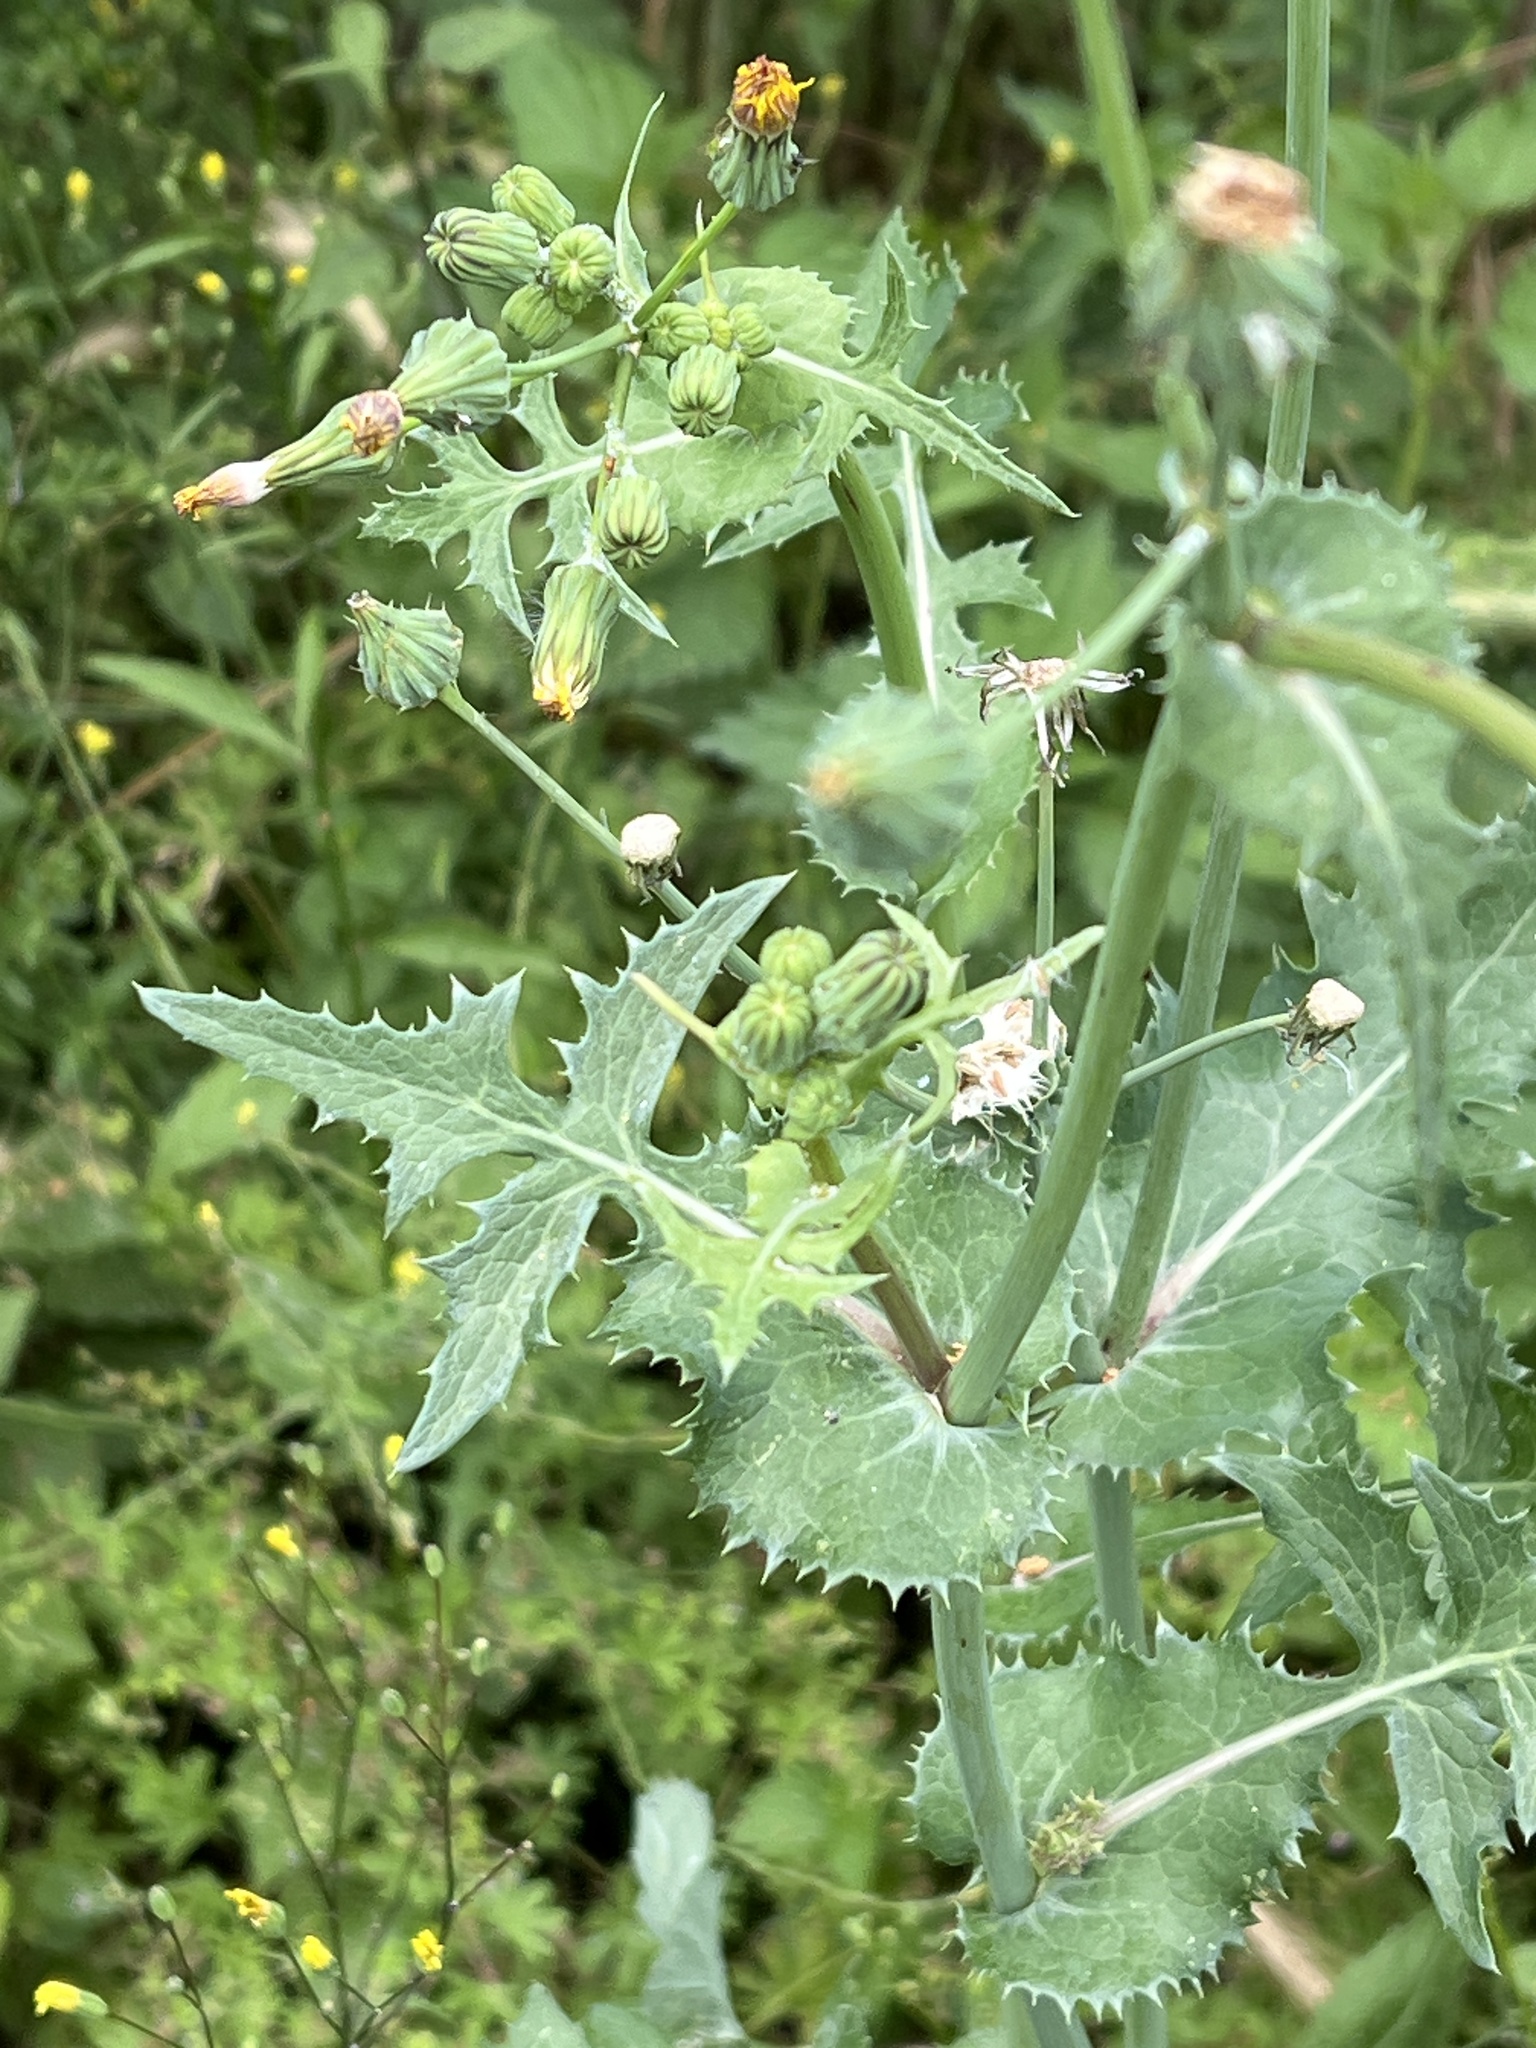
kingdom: Plantae
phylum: Tracheophyta
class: Magnoliopsida
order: Asterales
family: Asteraceae
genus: Sonchus
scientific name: Sonchus oleraceus
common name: Common sowthistle
